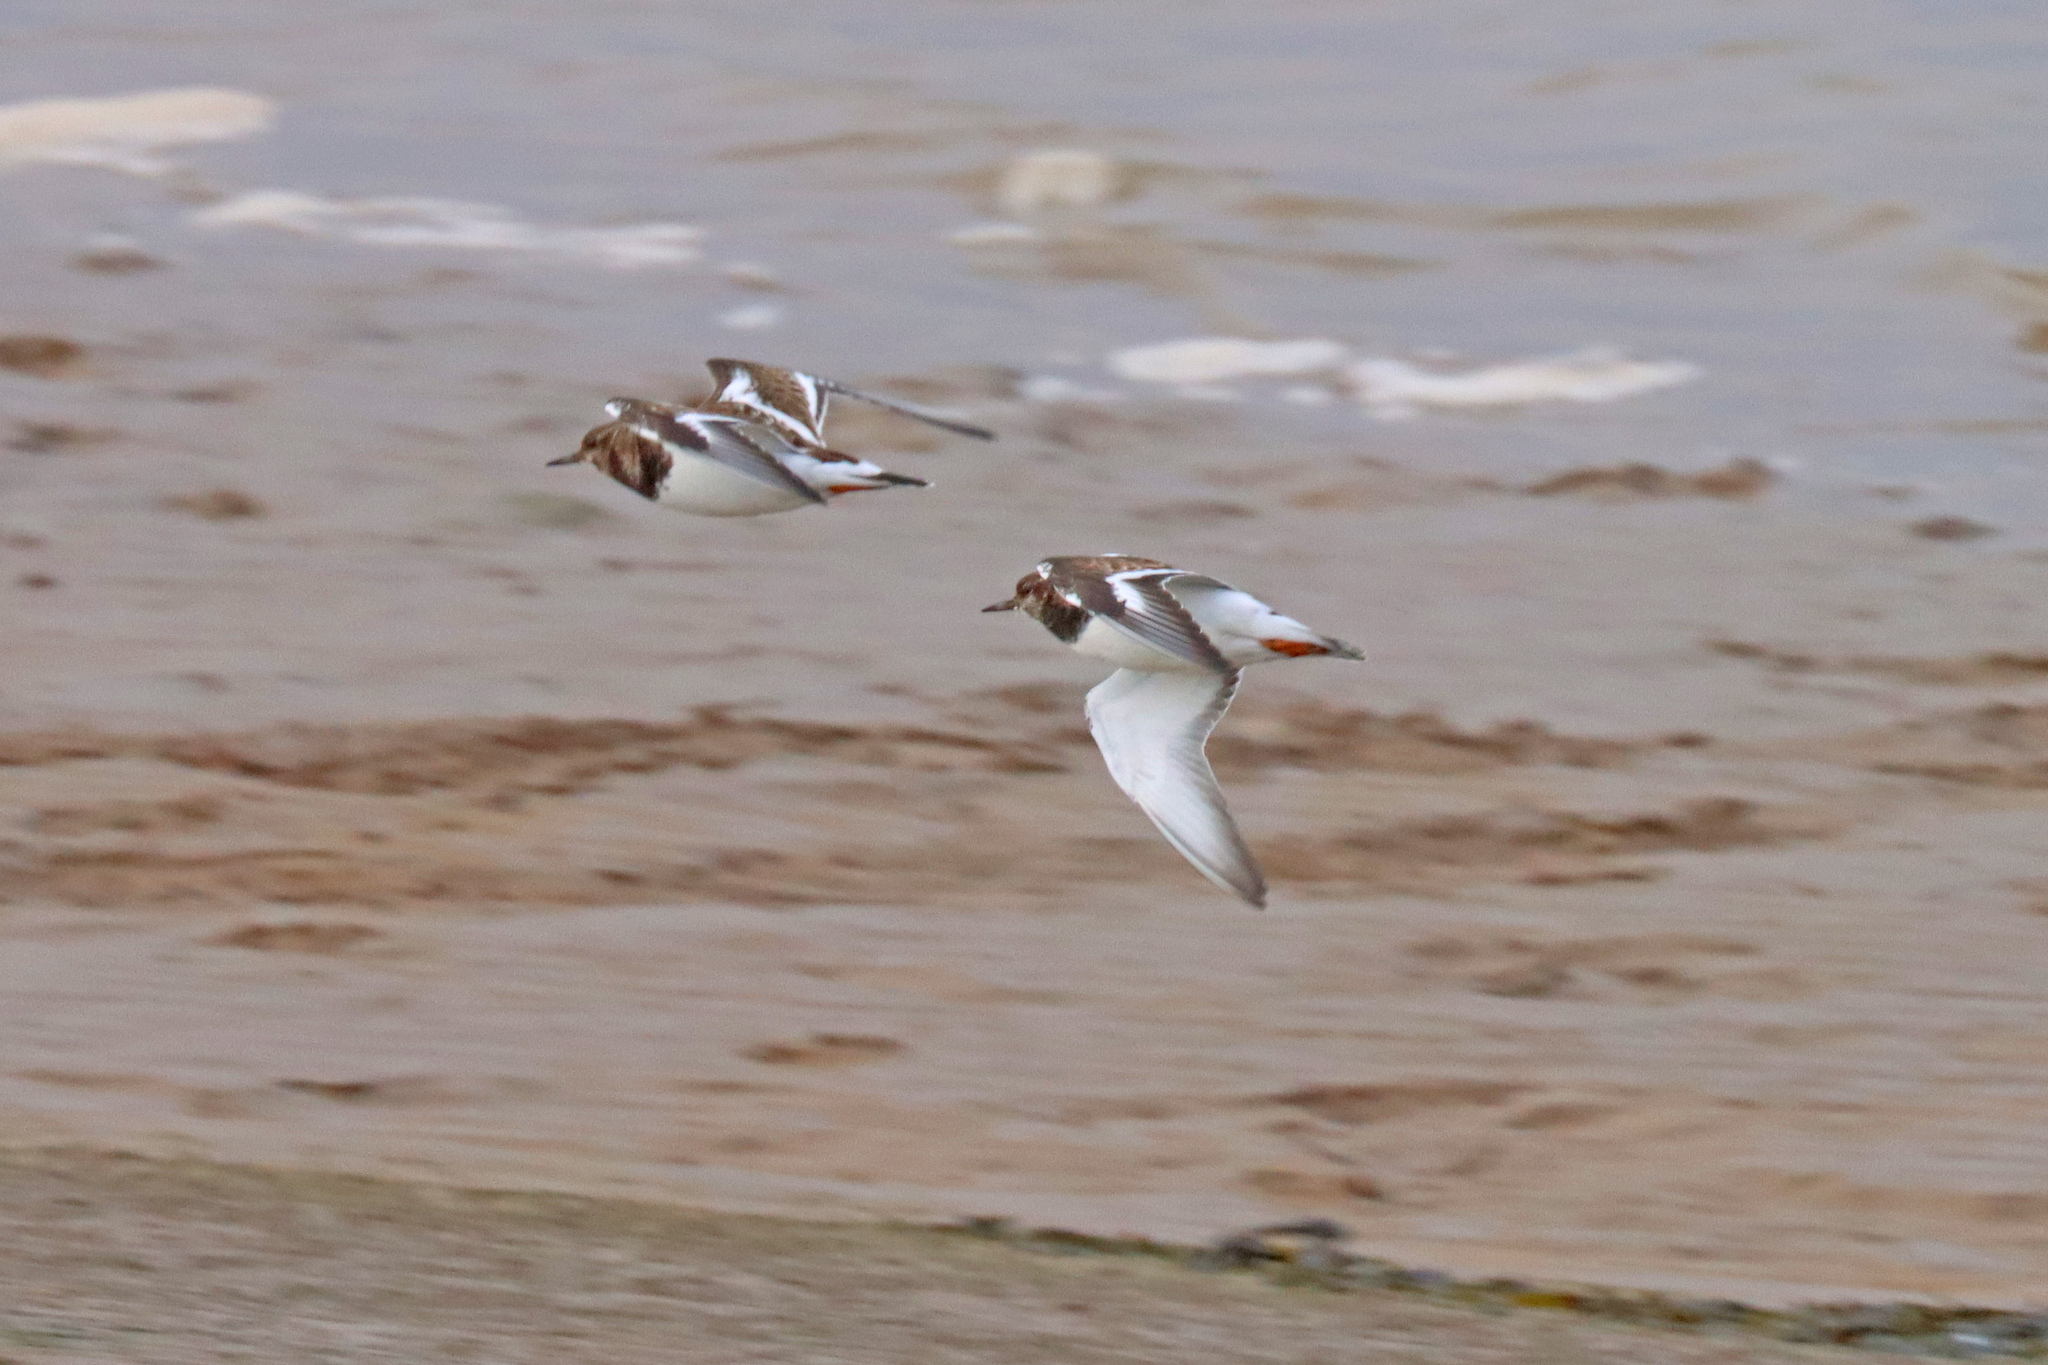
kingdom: Animalia
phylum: Chordata
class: Aves
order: Charadriiformes
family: Scolopacidae
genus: Arenaria
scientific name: Arenaria interpres
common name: Ruddy turnstone
